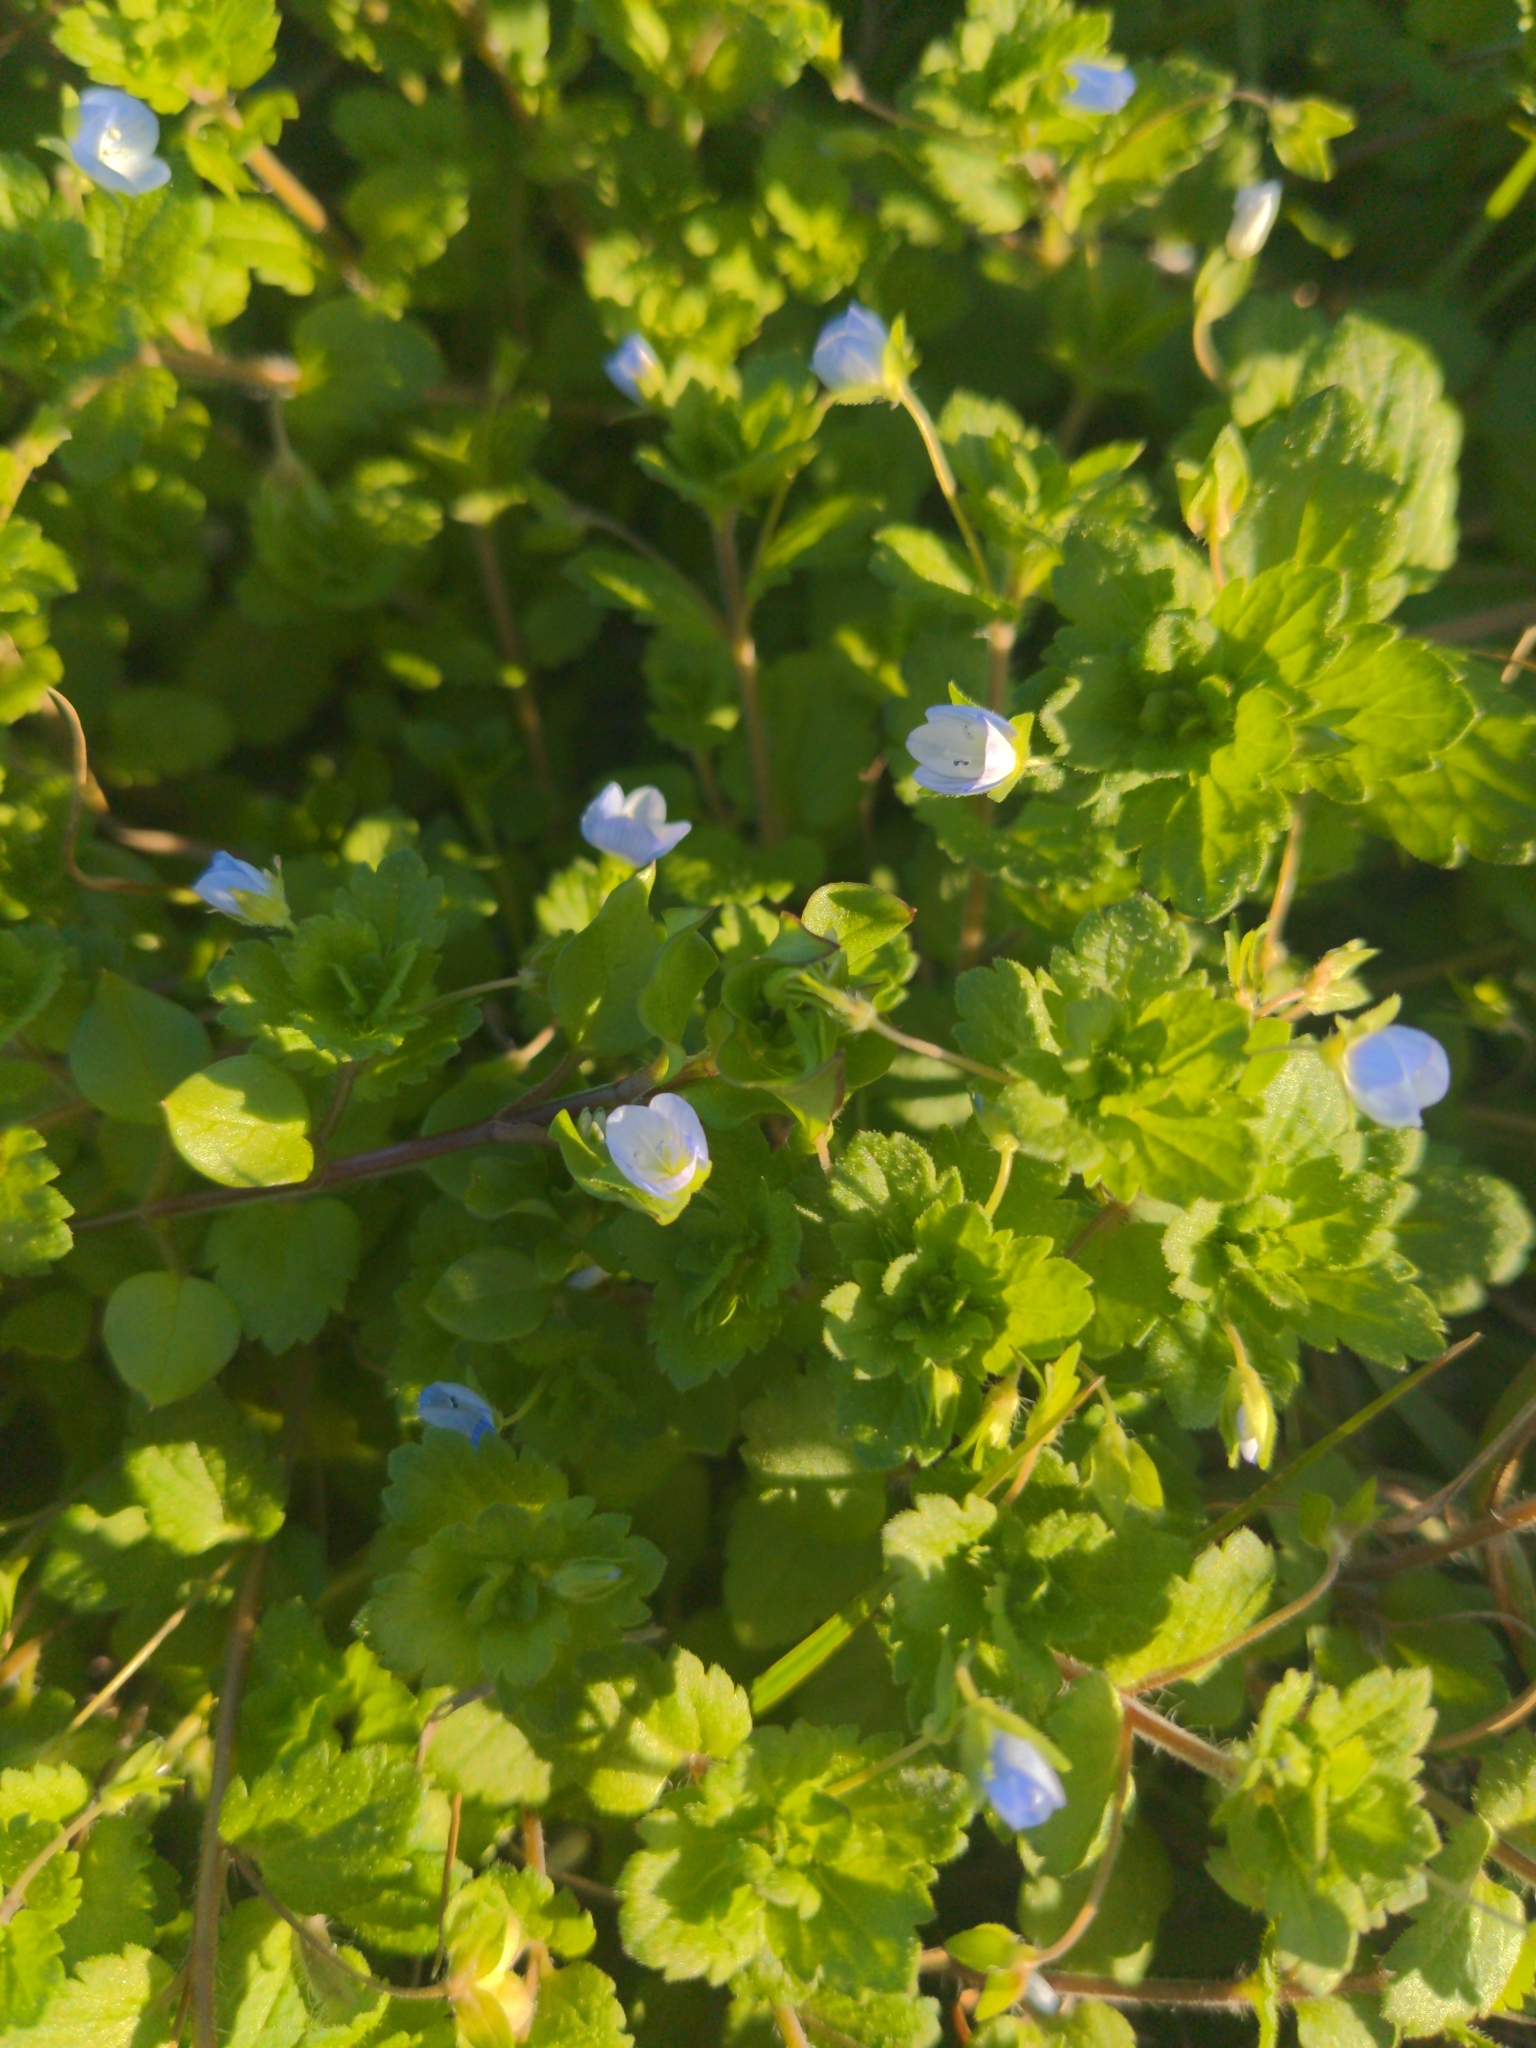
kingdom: Plantae
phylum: Tracheophyta
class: Magnoliopsida
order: Lamiales
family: Plantaginaceae
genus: Veronica
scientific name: Veronica persica
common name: Common field-speedwell
